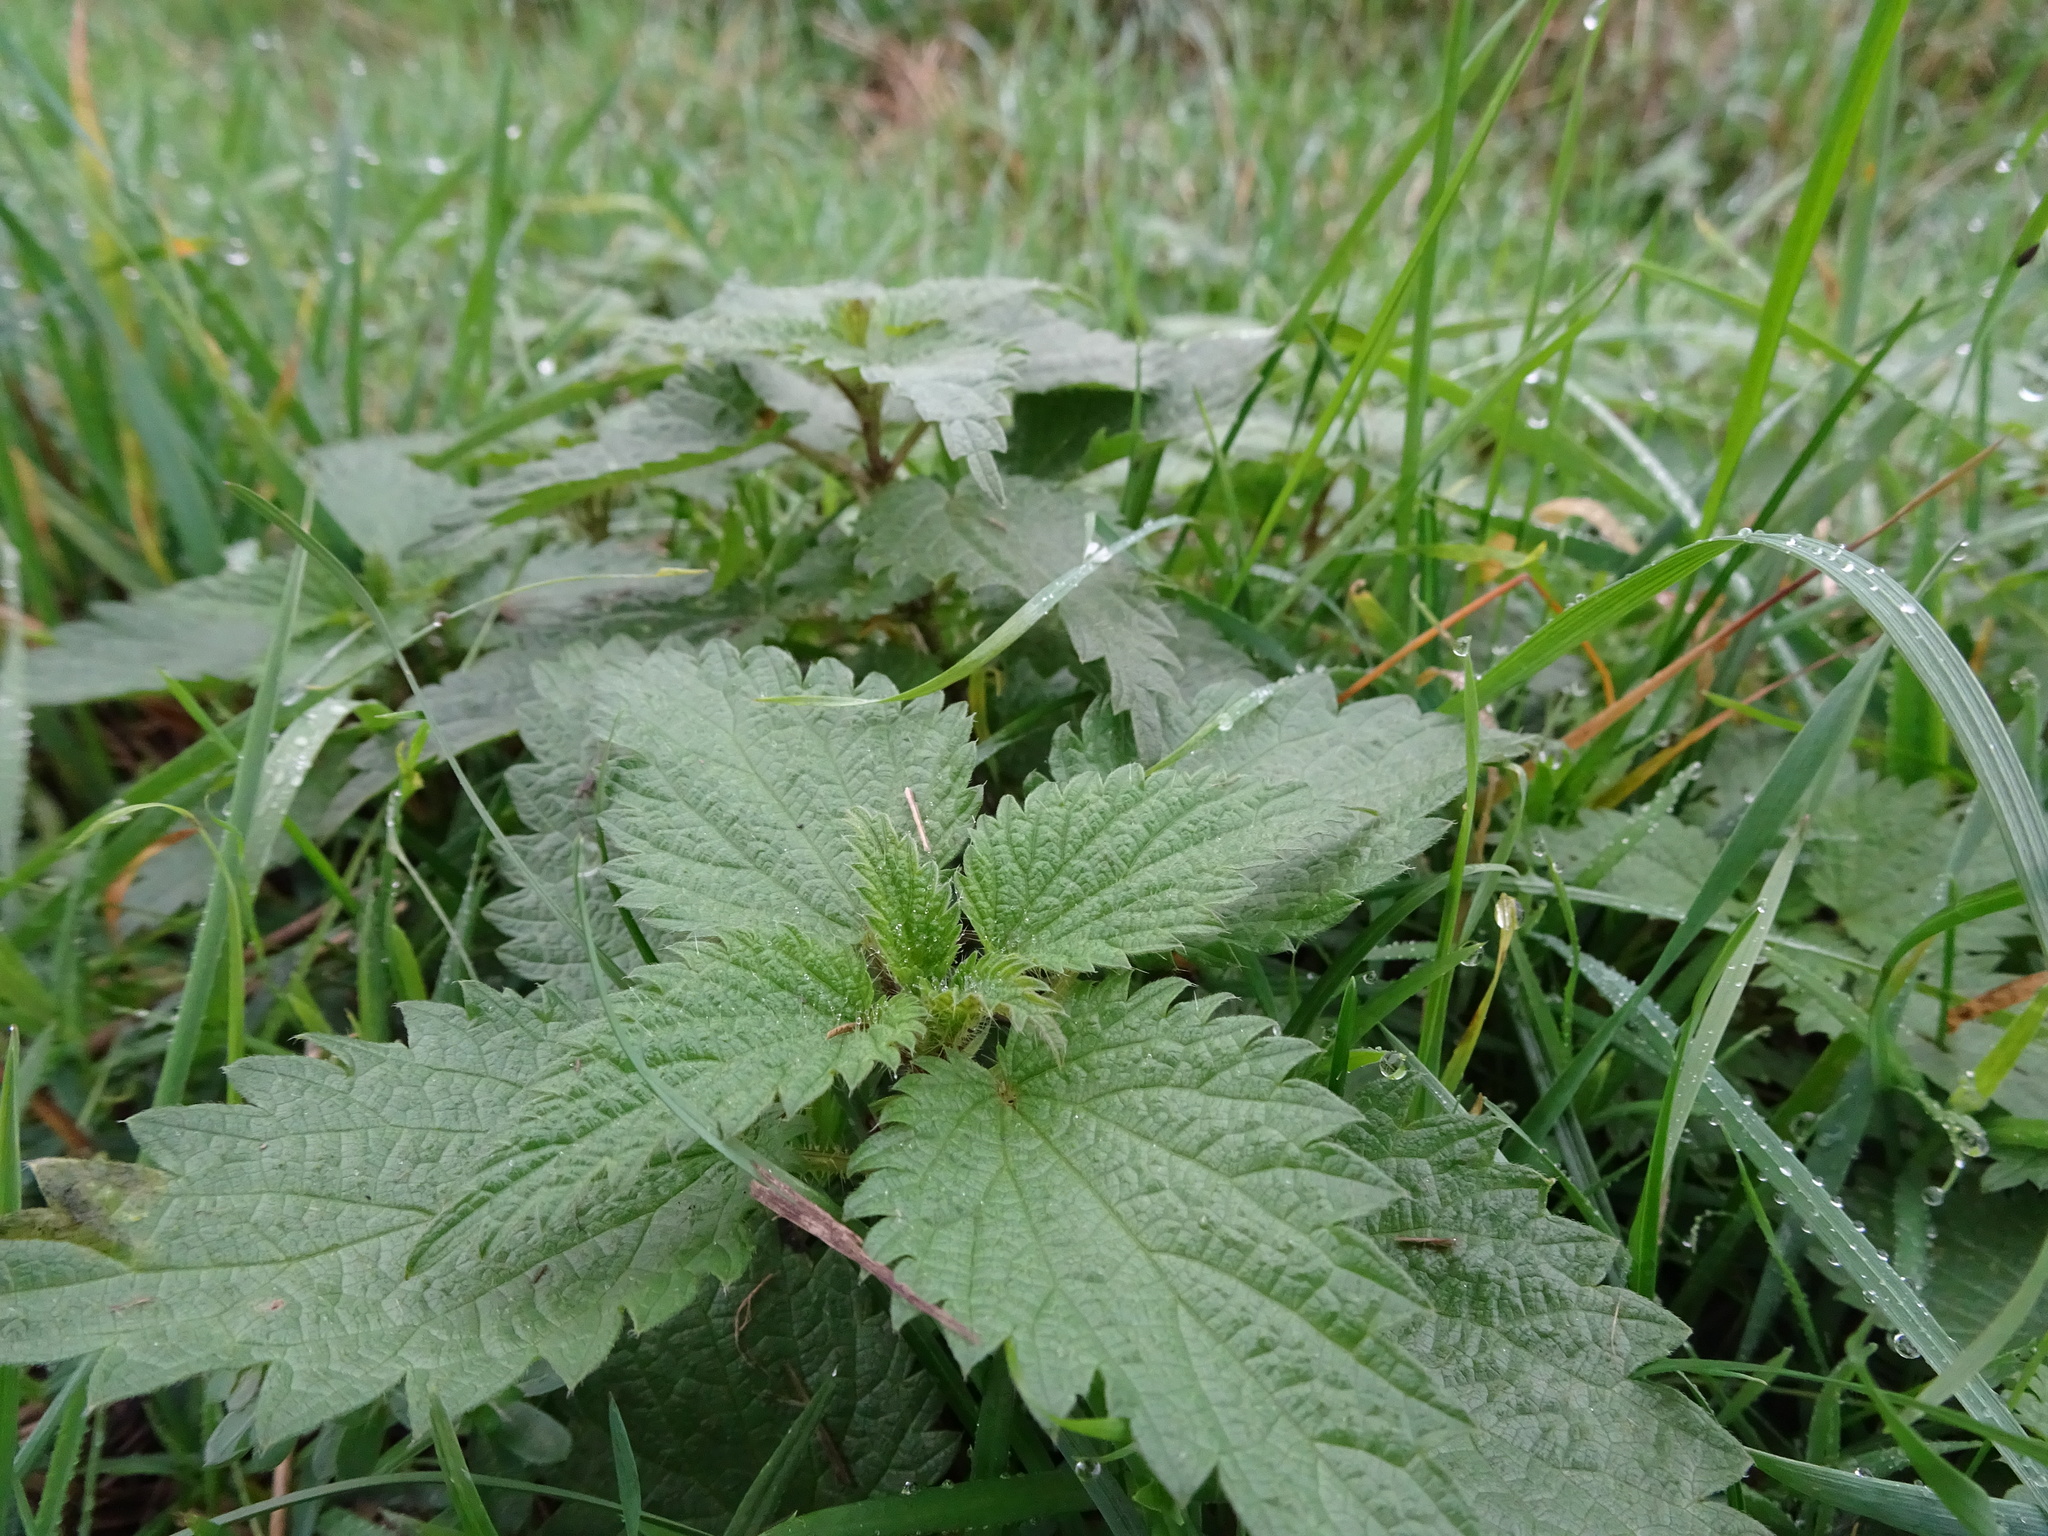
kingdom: Plantae
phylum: Tracheophyta
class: Magnoliopsida
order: Rosales
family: Urticaceae
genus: Urtica
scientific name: Urtica dioica
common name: Common nettle
